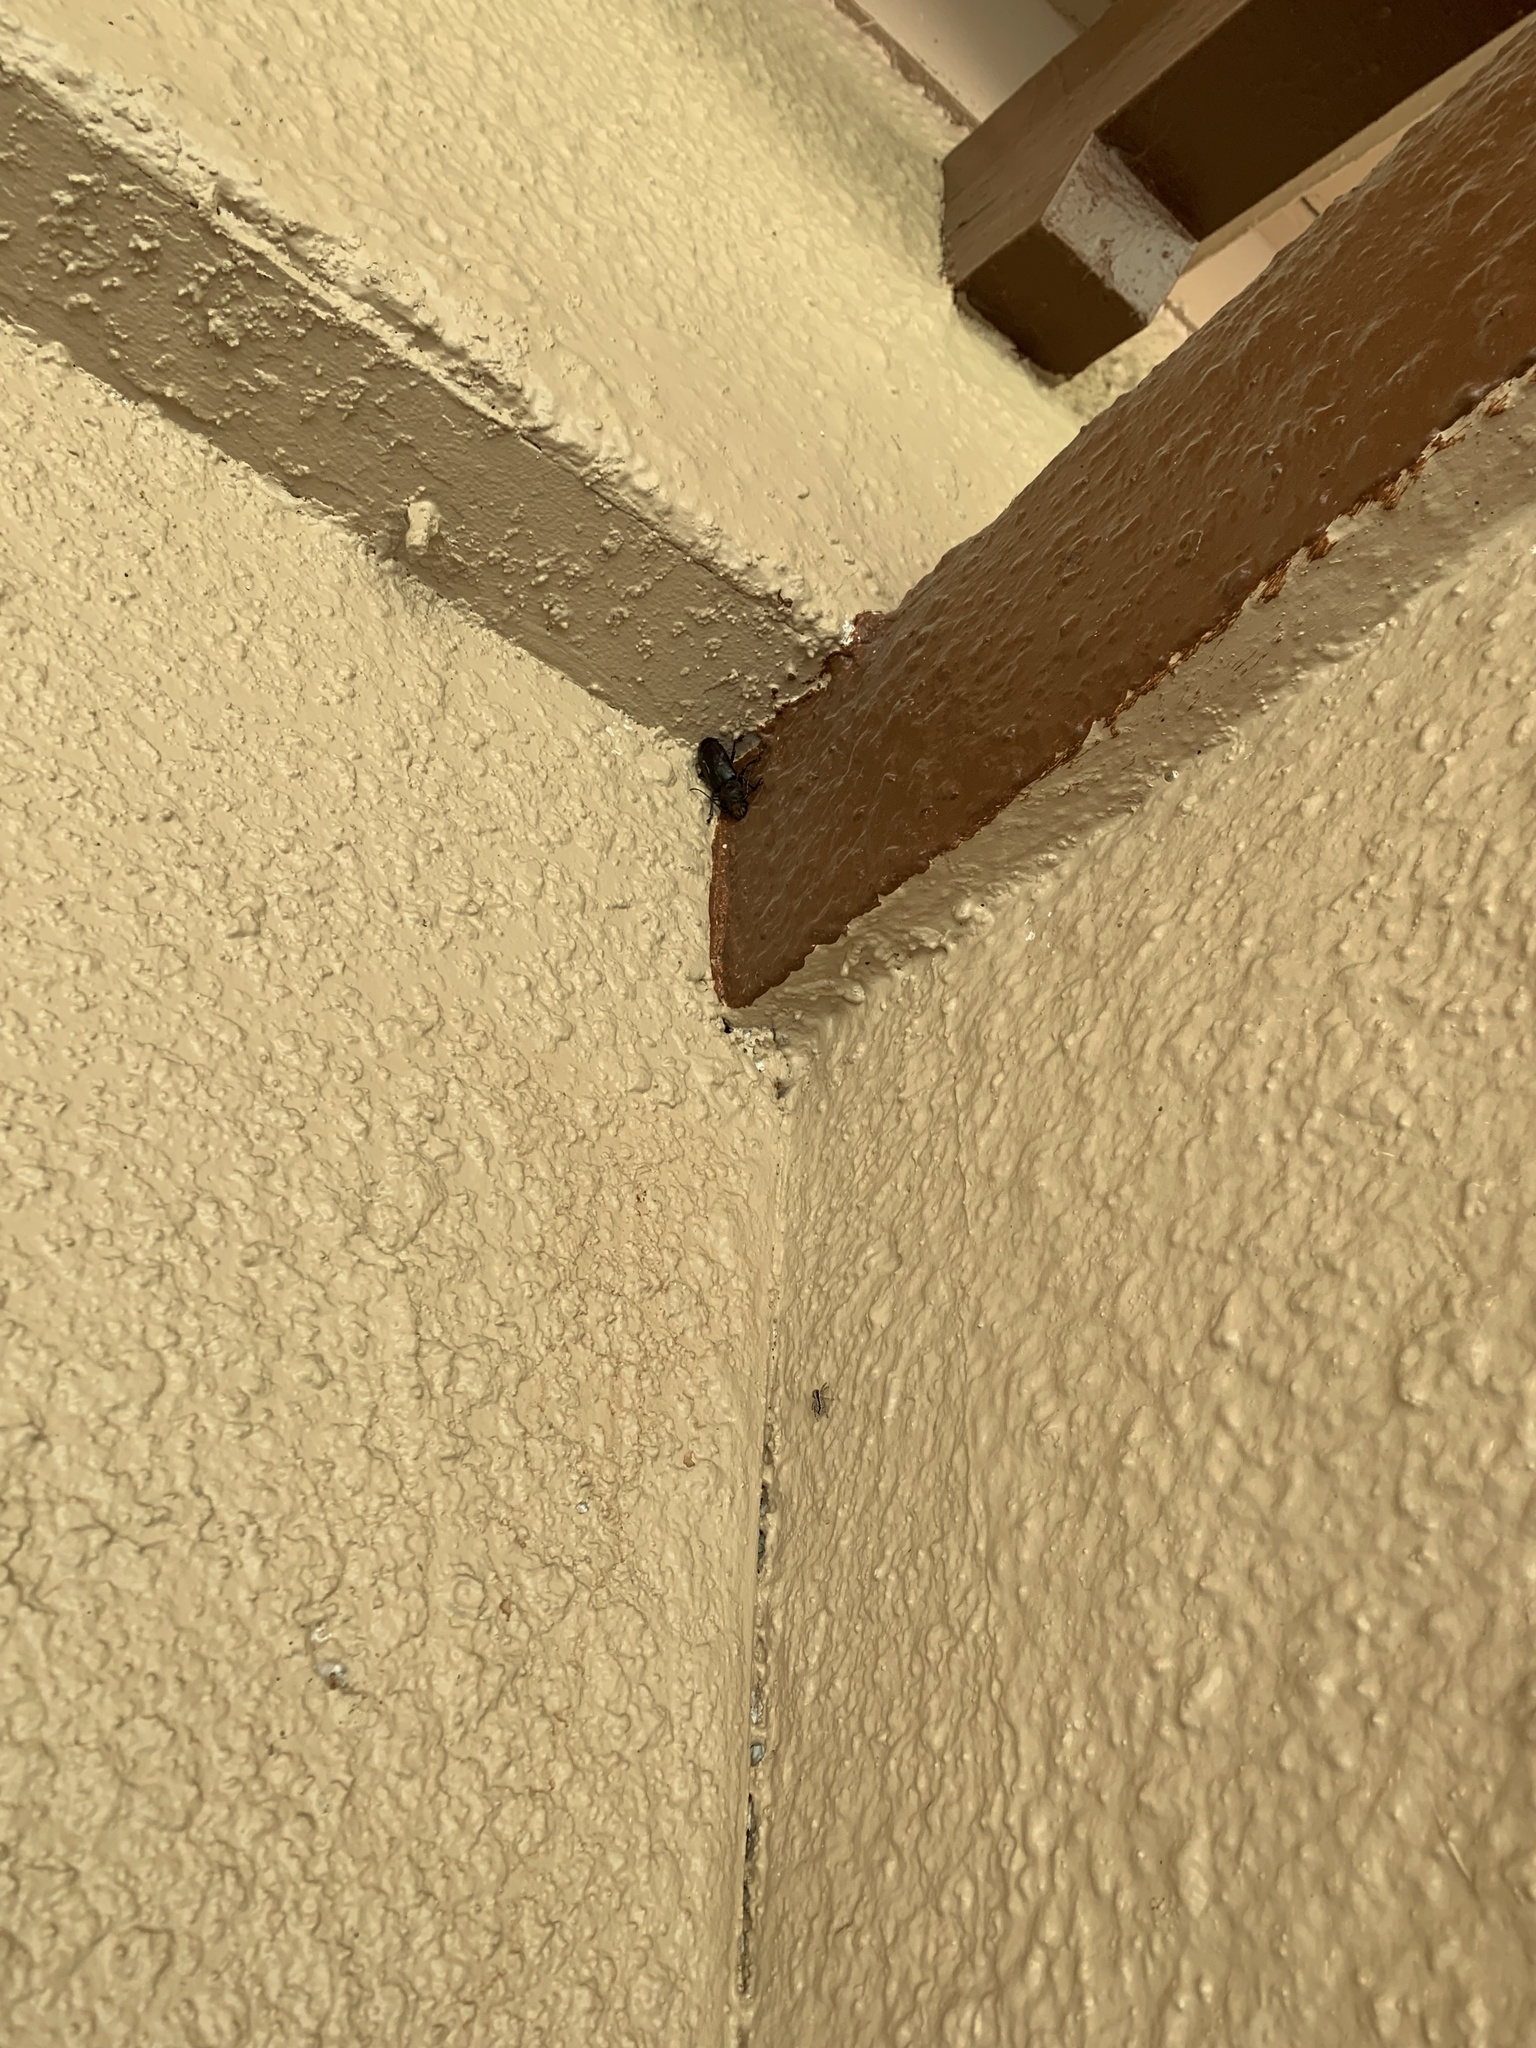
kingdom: Animalia
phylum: Arthropoda
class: Insecta
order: Coleoptera
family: Cerambycidae
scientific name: Cerambycidae
